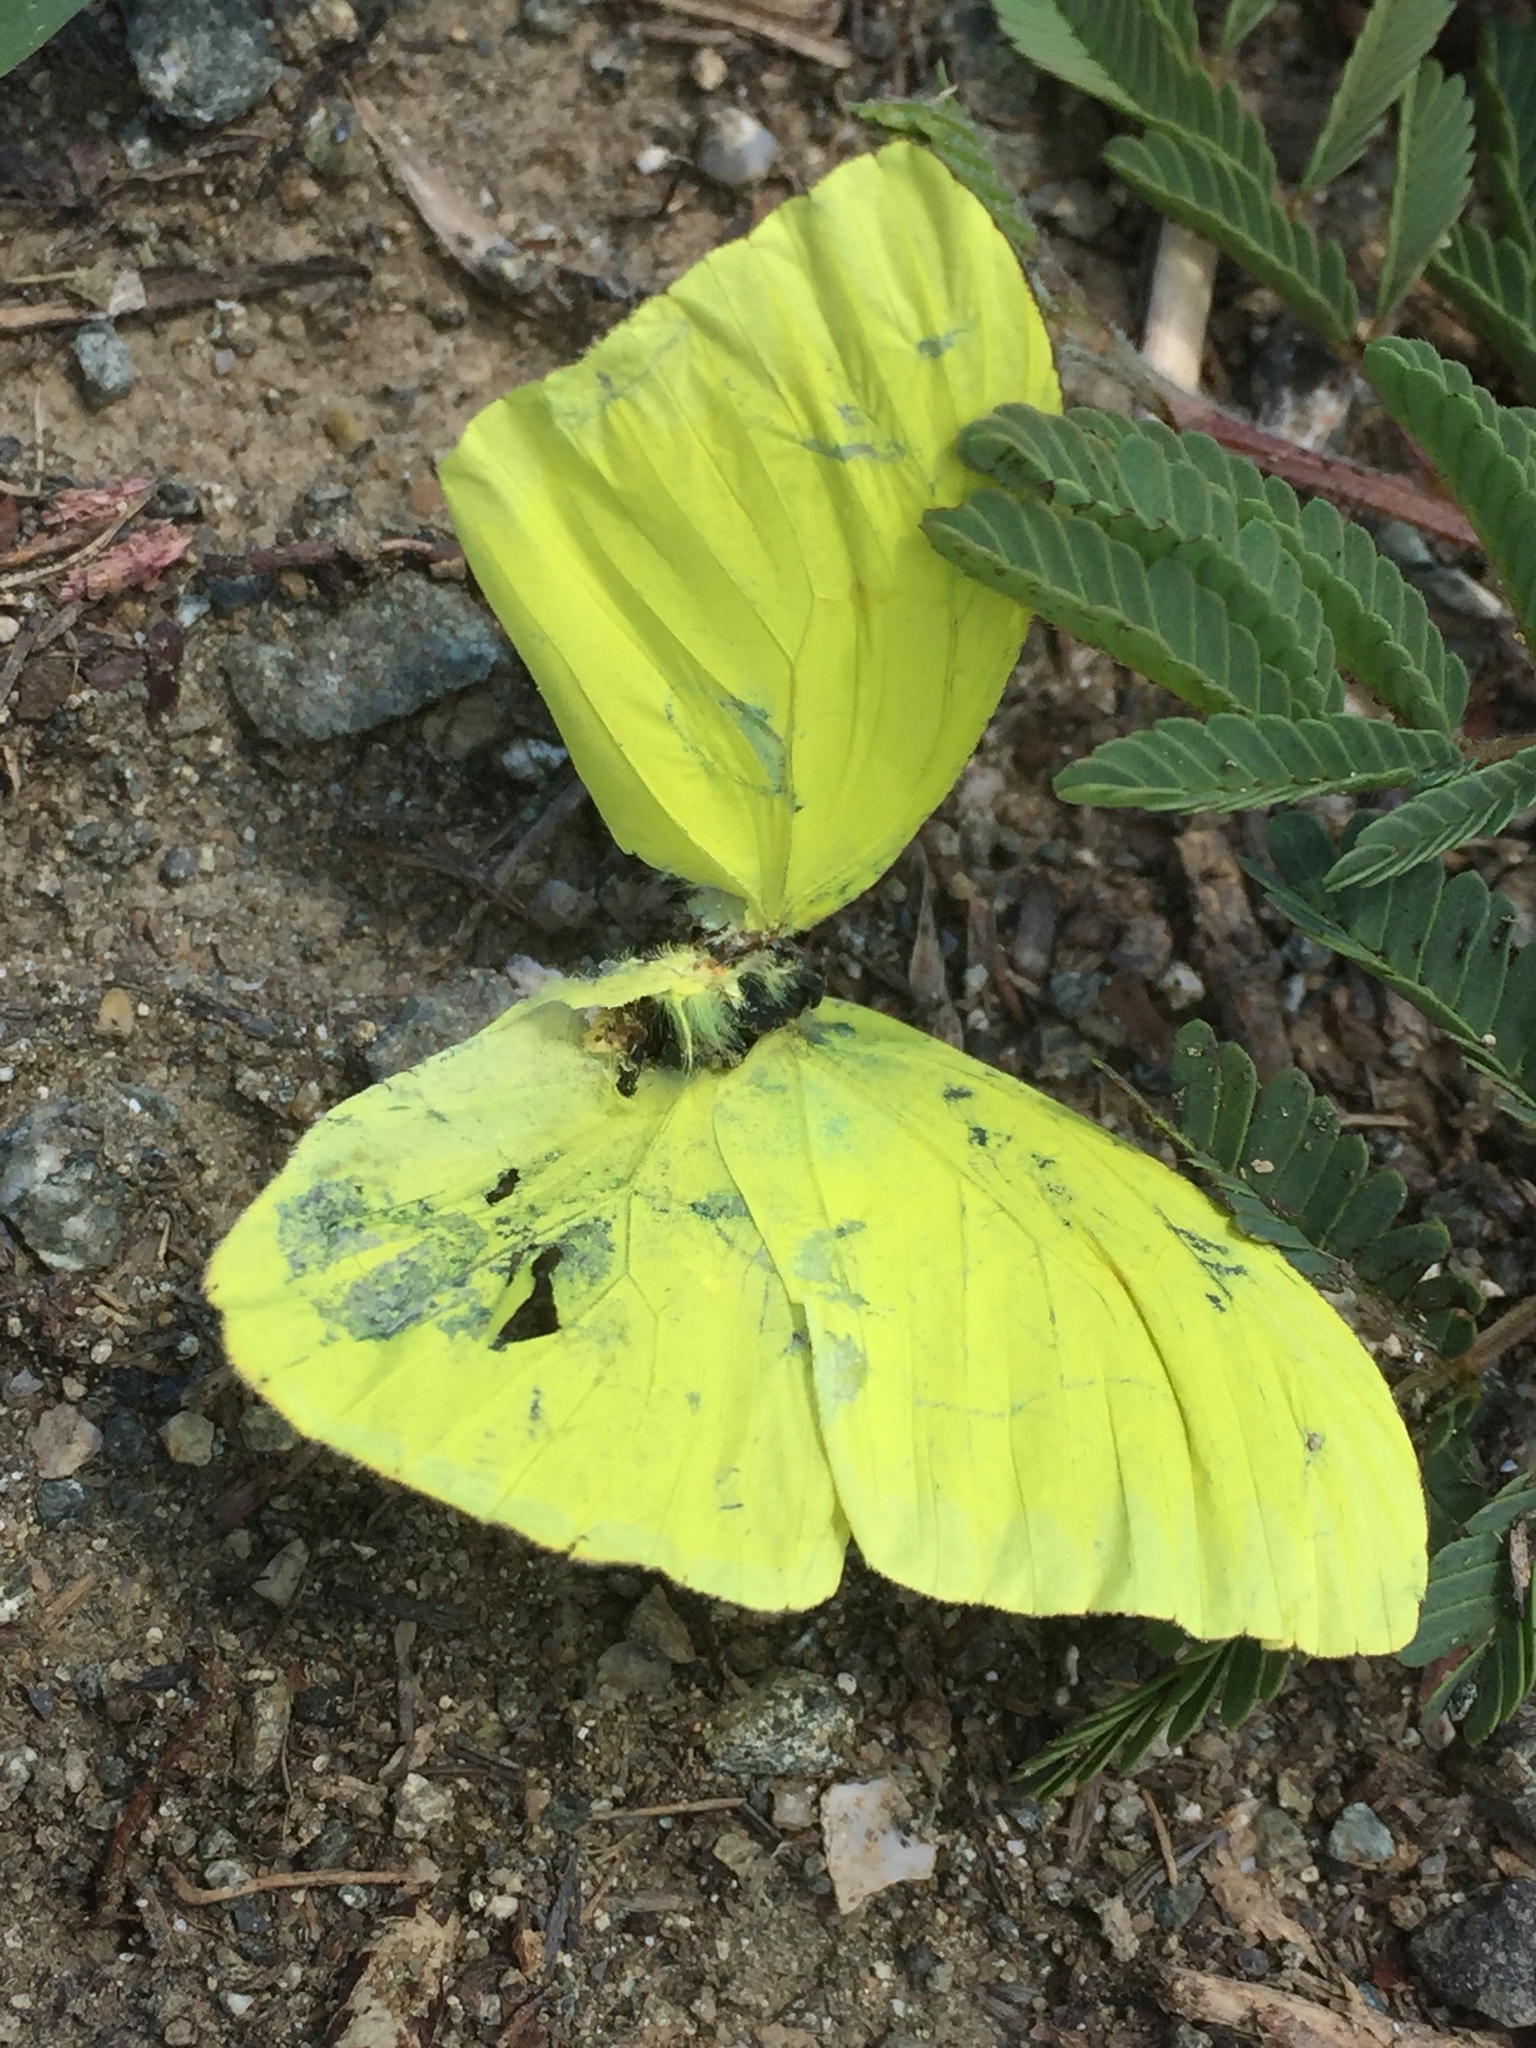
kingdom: Animalia
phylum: Arthropoda
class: Insecta
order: Lepidoptera
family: Pieridae
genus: Phoebis
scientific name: Phoebis sennae
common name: Cloudless sulphur
